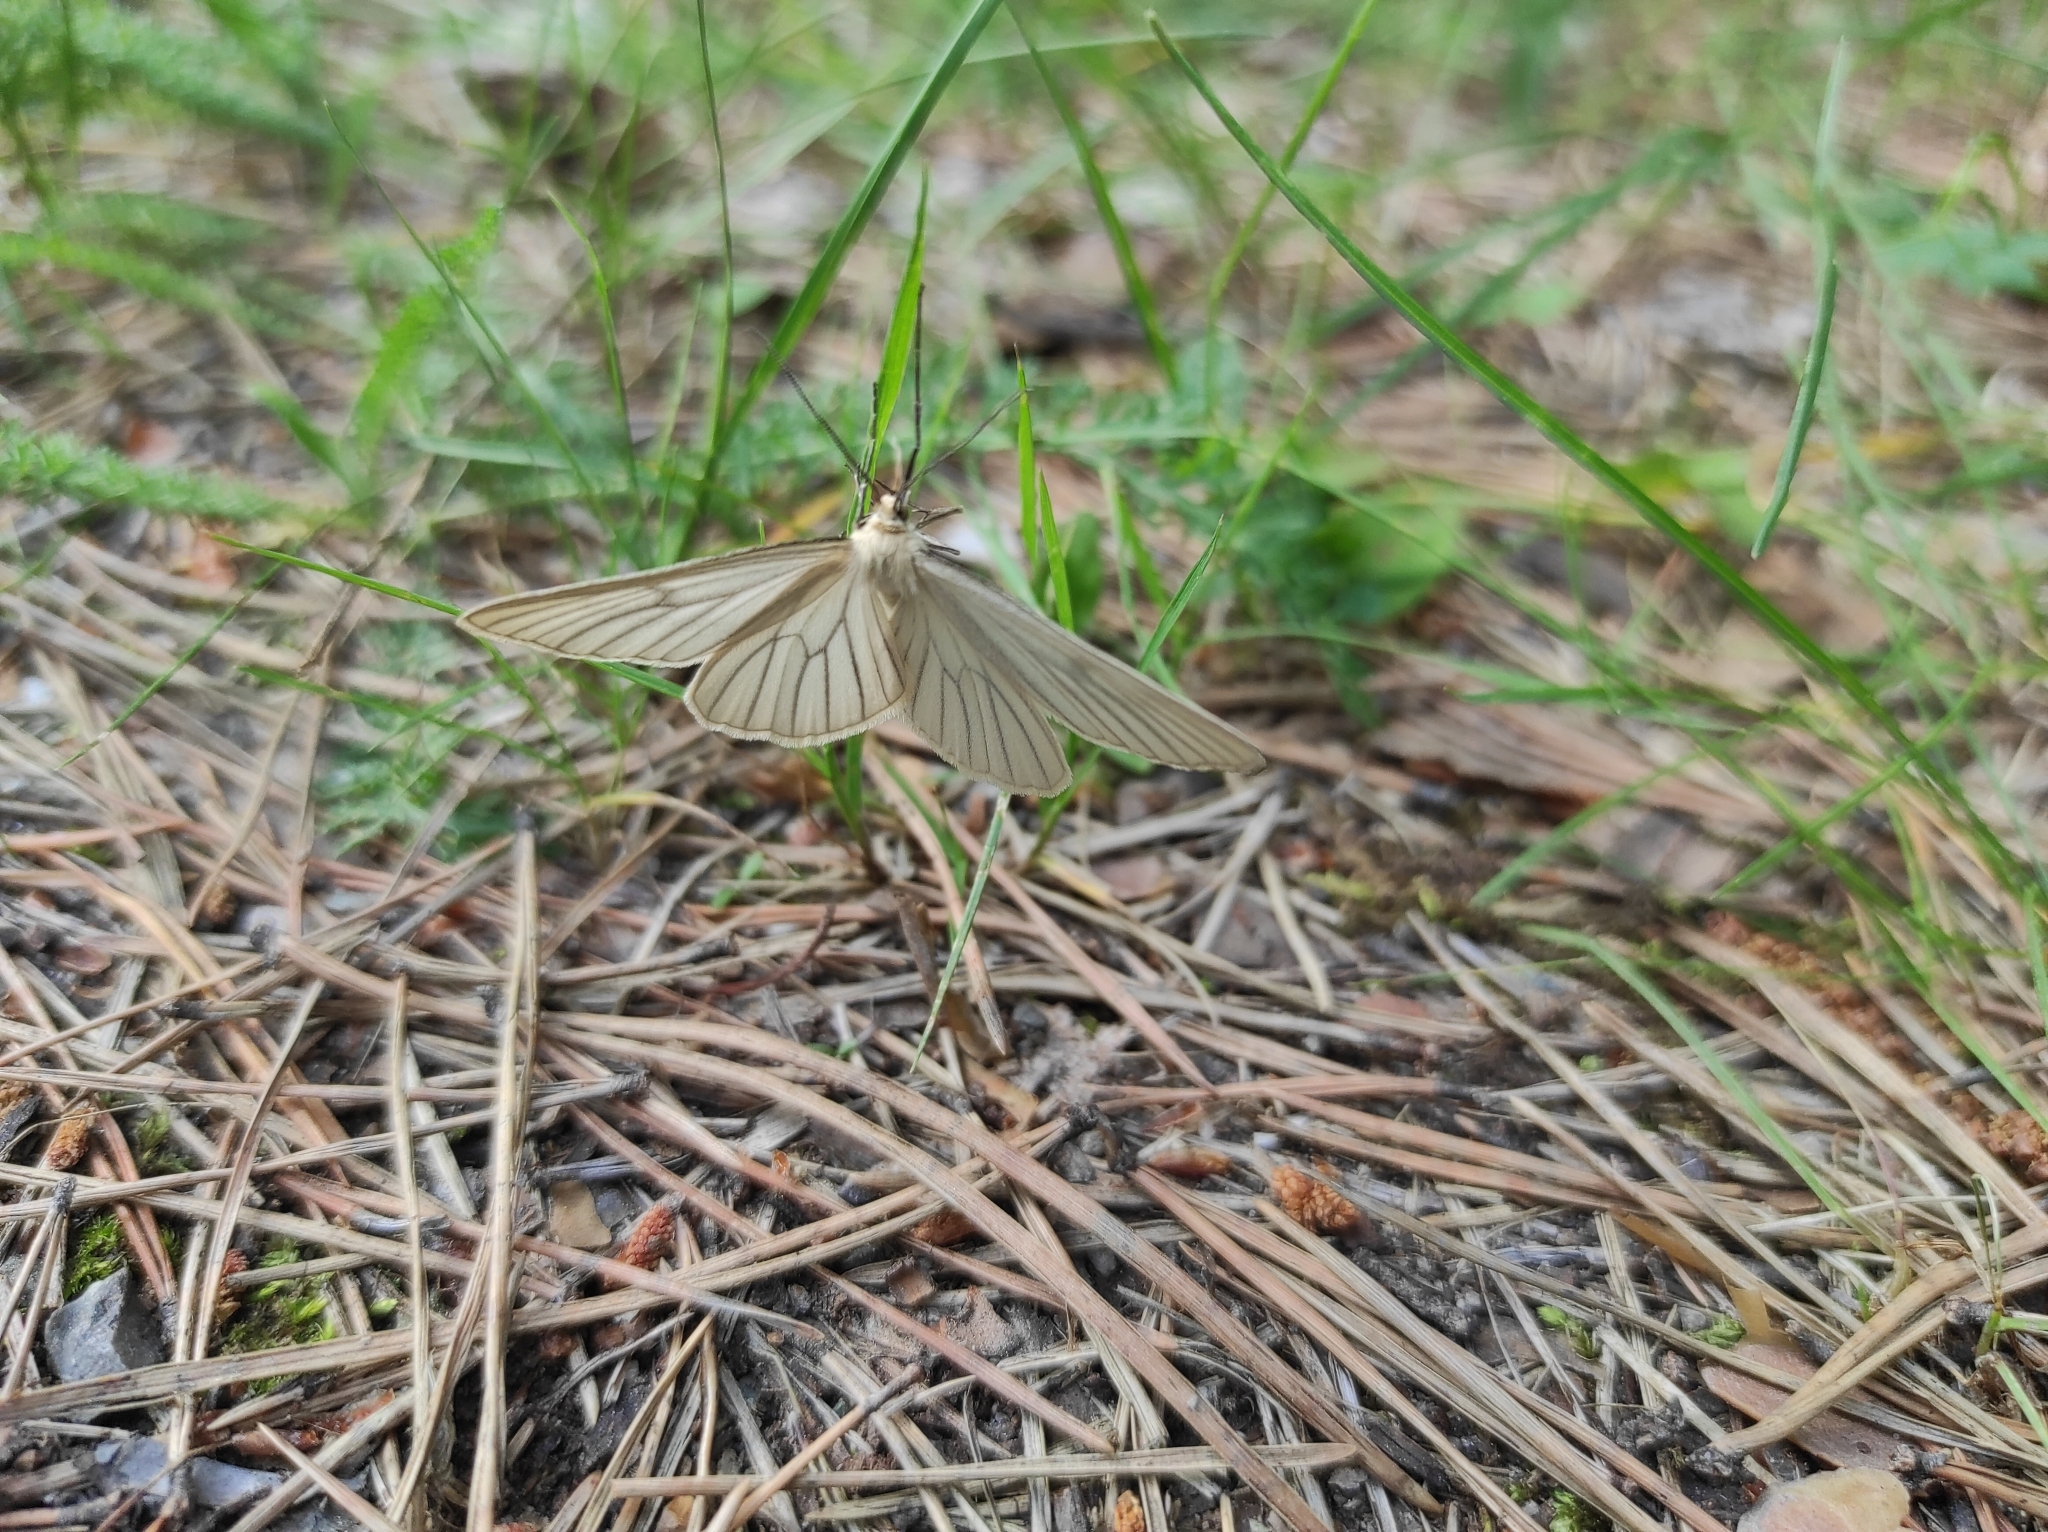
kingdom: Animalia
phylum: Arthropoda
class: Insecta
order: Lepidoptera
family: Geometridae
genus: Siona
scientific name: Siona lineata
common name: Black-veined moth
